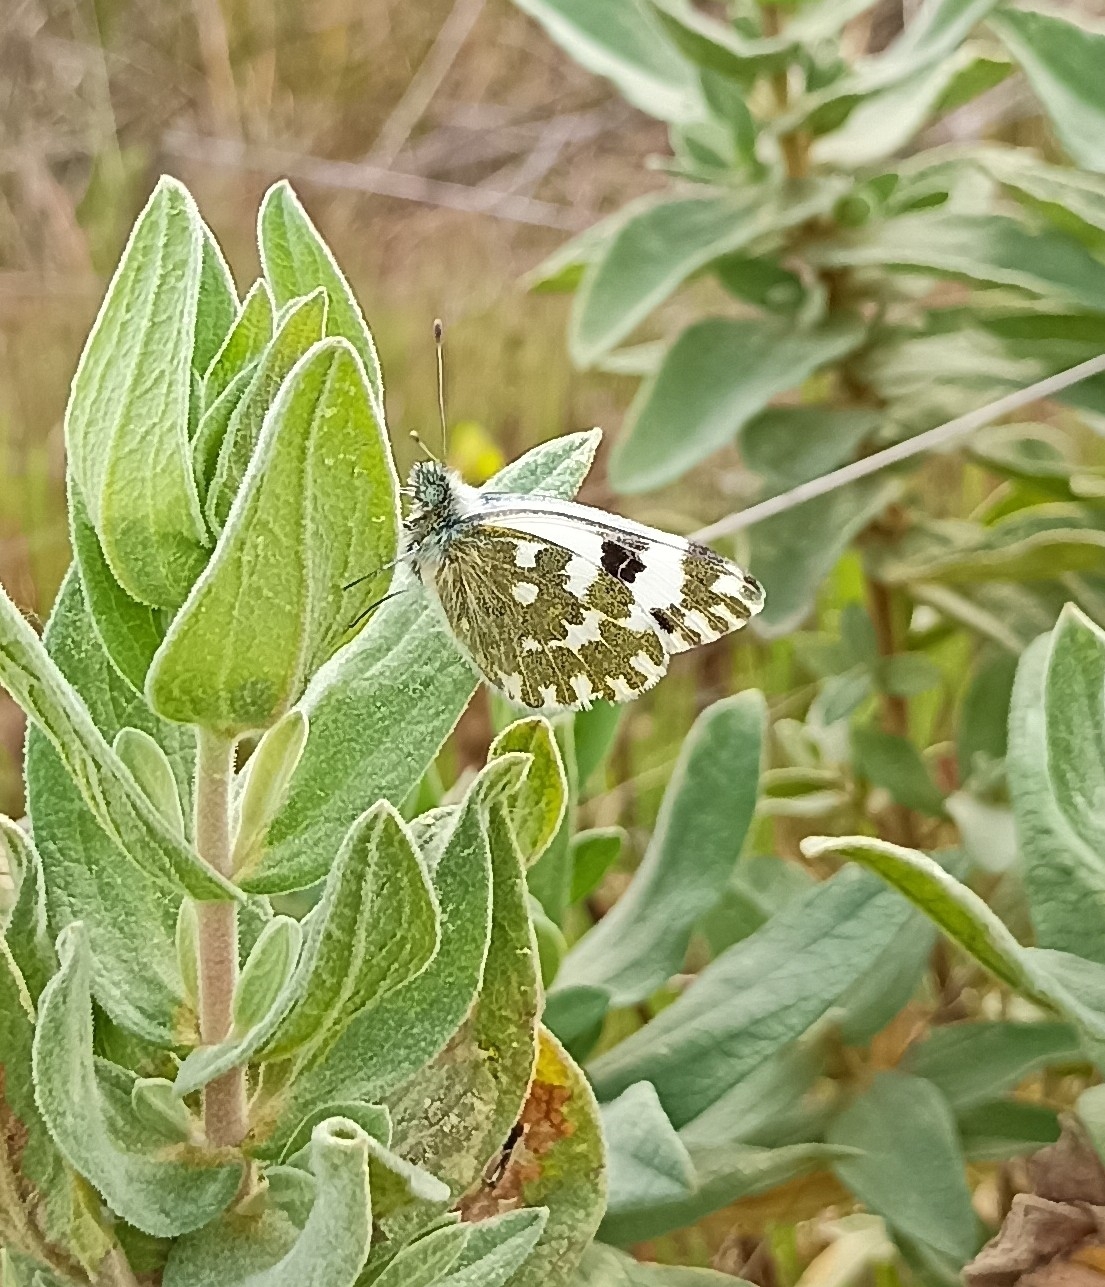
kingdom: Animalia
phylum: Arthropoda
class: Insecta
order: Lepidoptera
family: Pieridae
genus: Pontia
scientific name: Pontia daplidice
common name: Bath white
